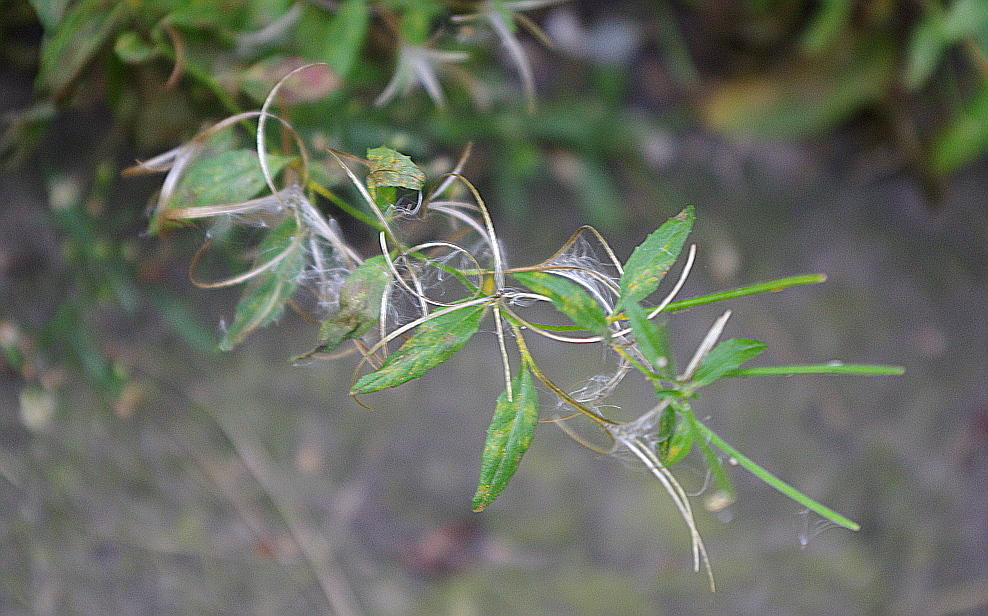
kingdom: Plantae
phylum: Tracheophyta
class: Magnoliopsida
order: Myrtales
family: Onagraceae
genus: Epilobium
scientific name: Epilobium pseudorubescens
